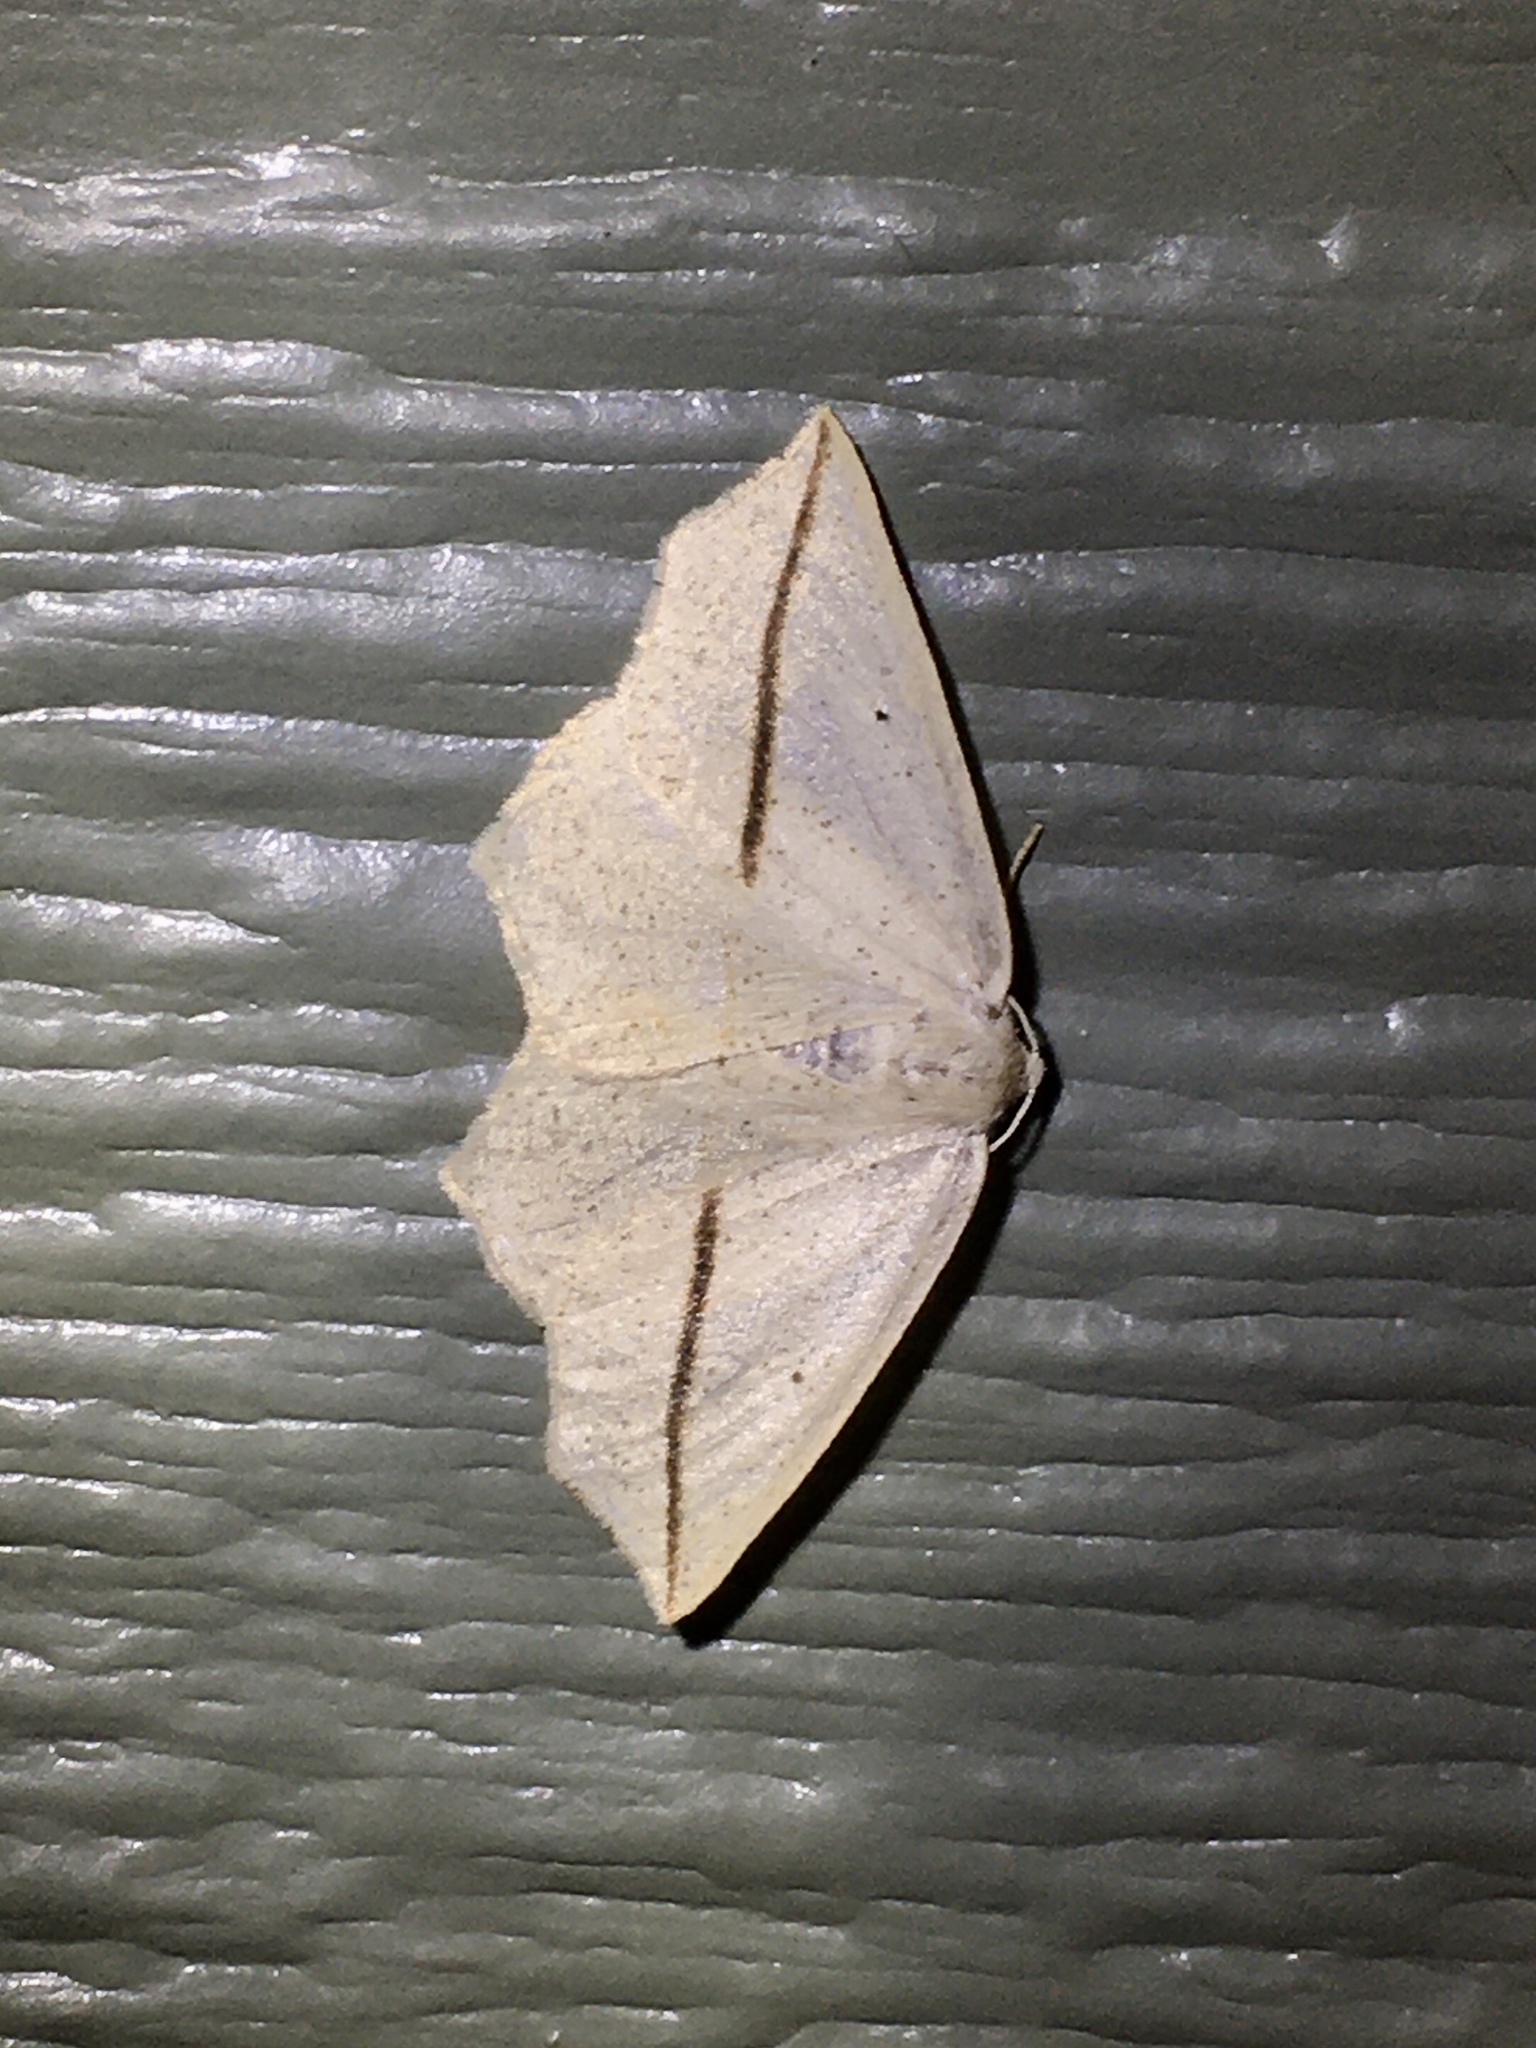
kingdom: Animalia
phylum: Arthropoda
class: Insecta
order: Lepidoptera
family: Geometridae
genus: Tetracis
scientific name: Tetracis crocallata
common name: Yellow slant-line
